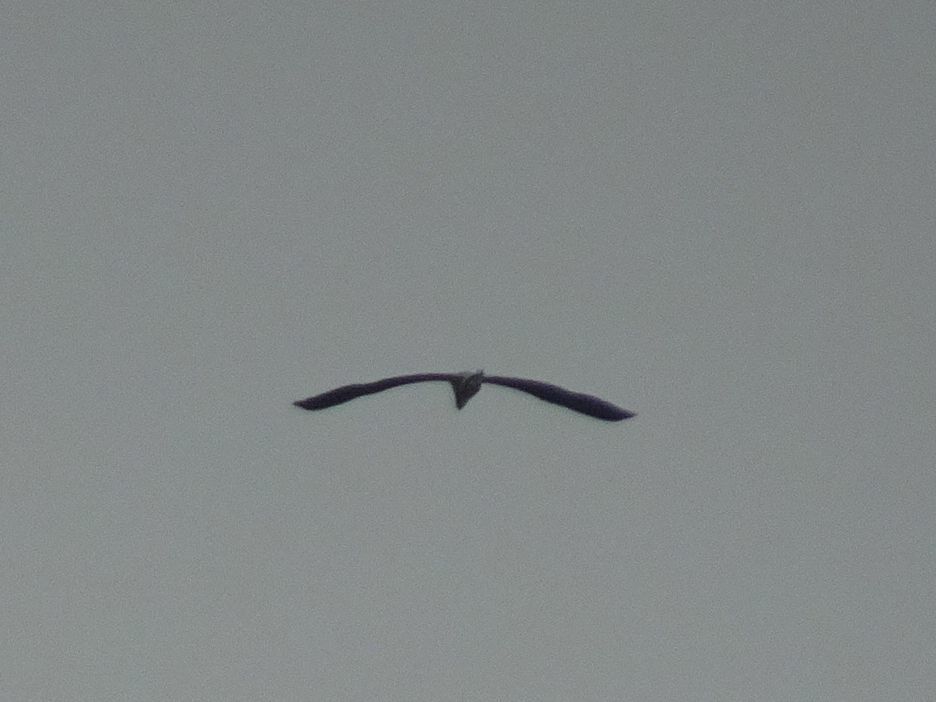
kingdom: Animalia
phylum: Chordata
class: Aves
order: Pelecaniformes
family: Ardeidae
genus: Ardea
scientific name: Ardea cinerea
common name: Grey heron
